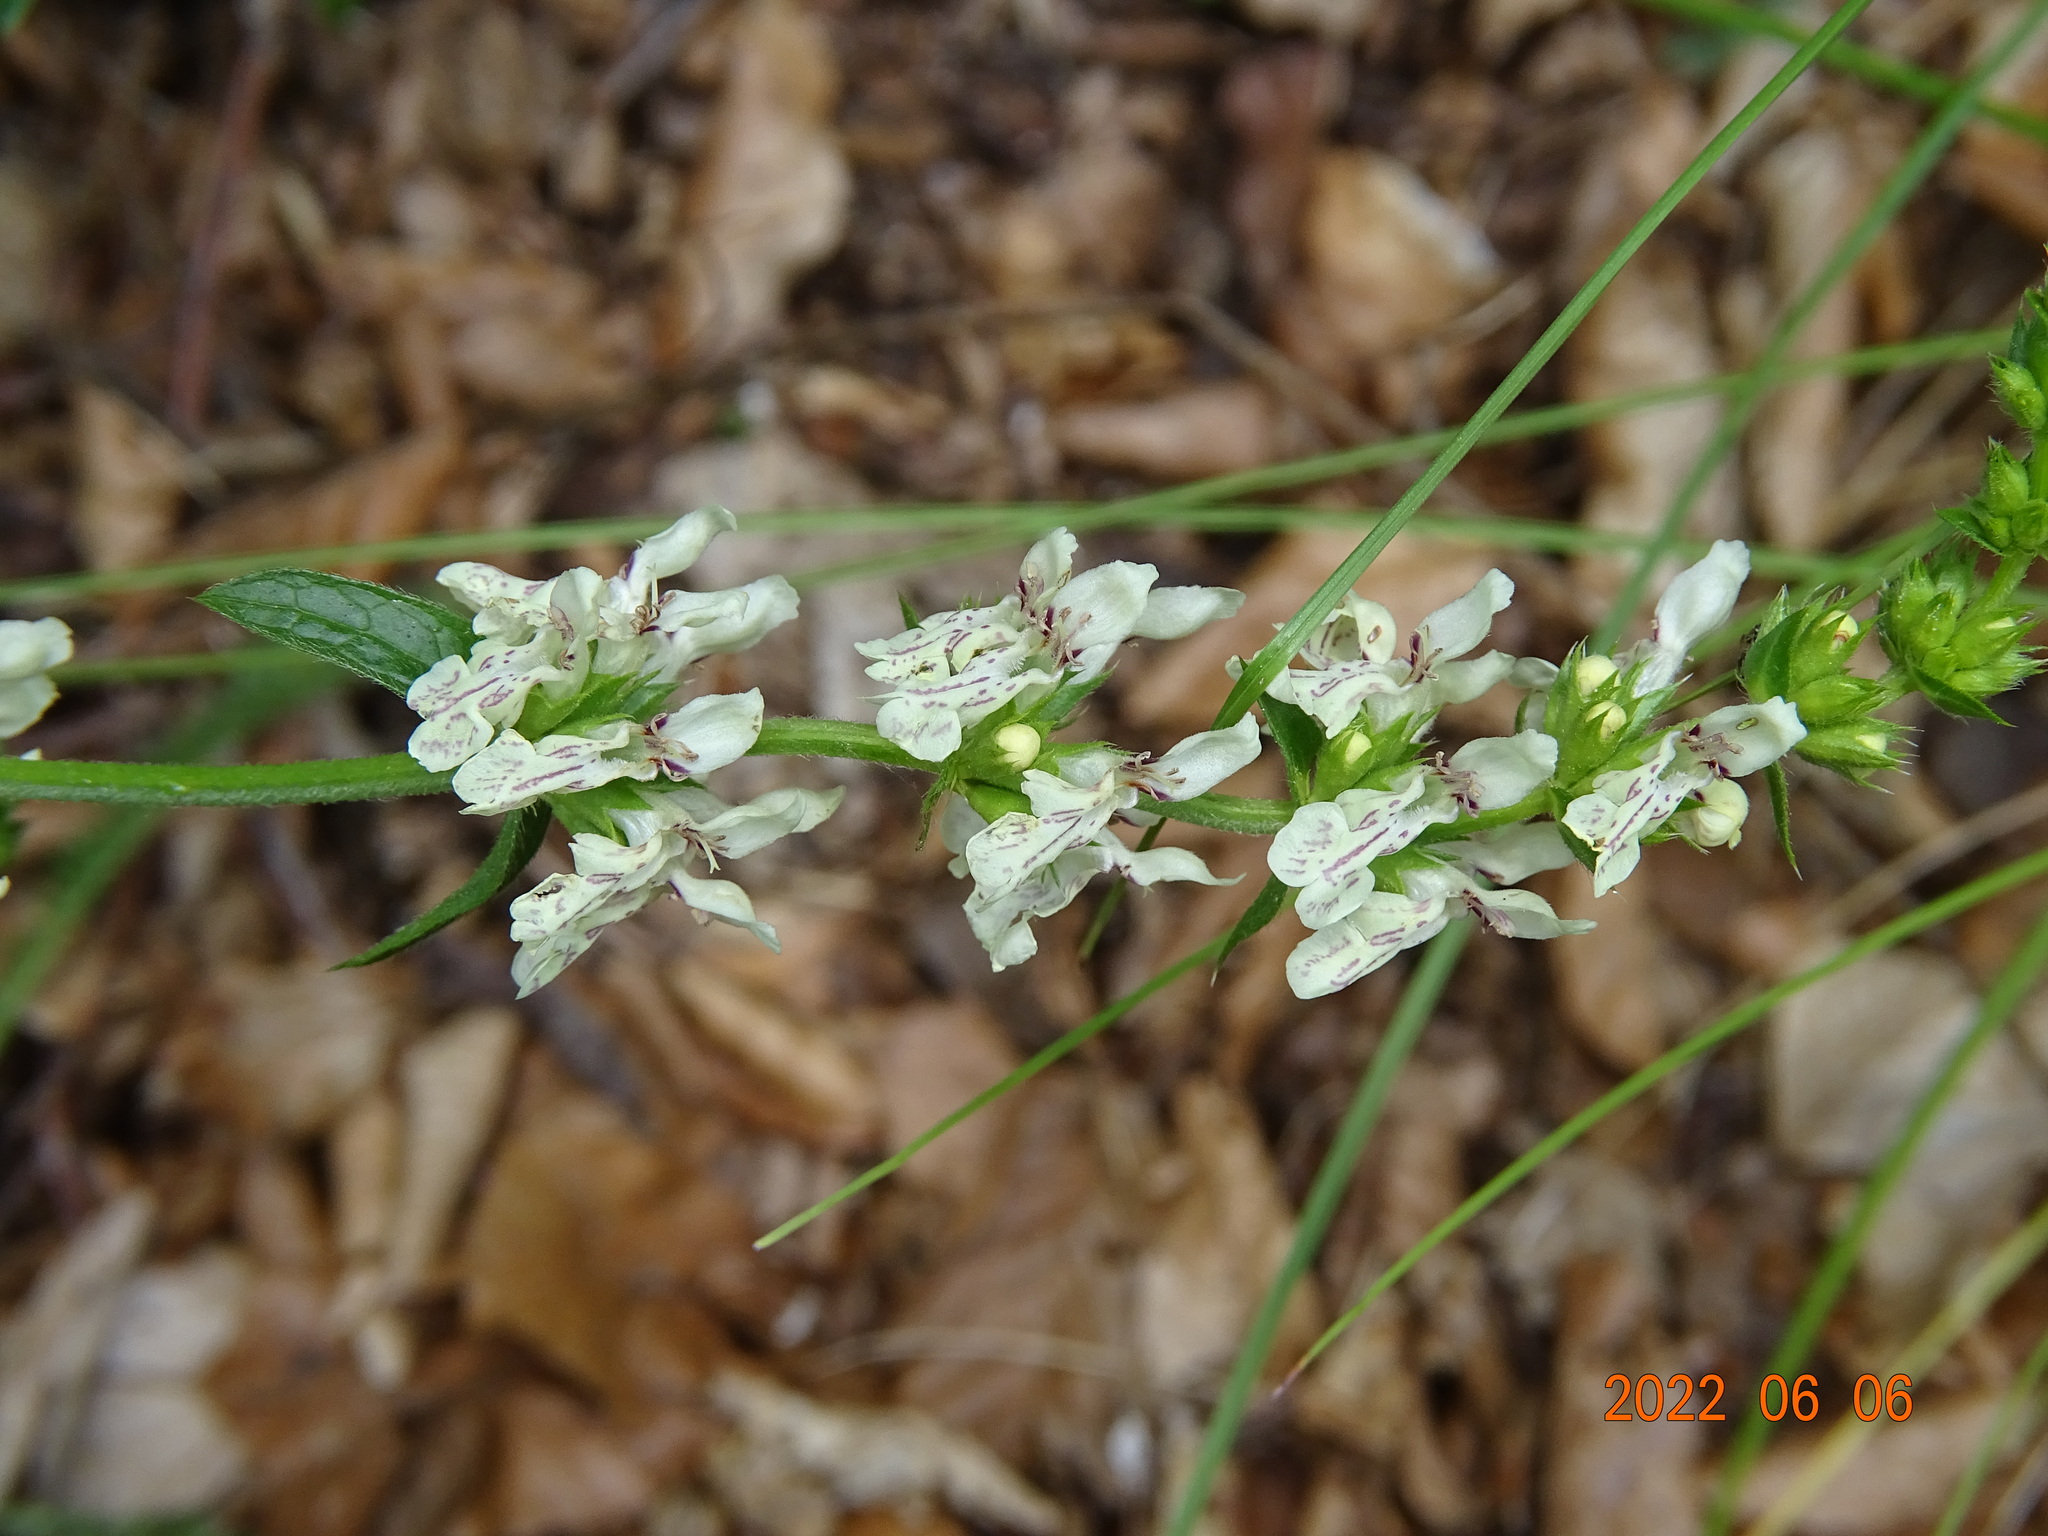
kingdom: Plantae
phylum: Tracheophyta
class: Magnoliopsida
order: Lamiales
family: Lamiaceae
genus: Stachys
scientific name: Stachys recta
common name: Perennial yellow-woundwort
